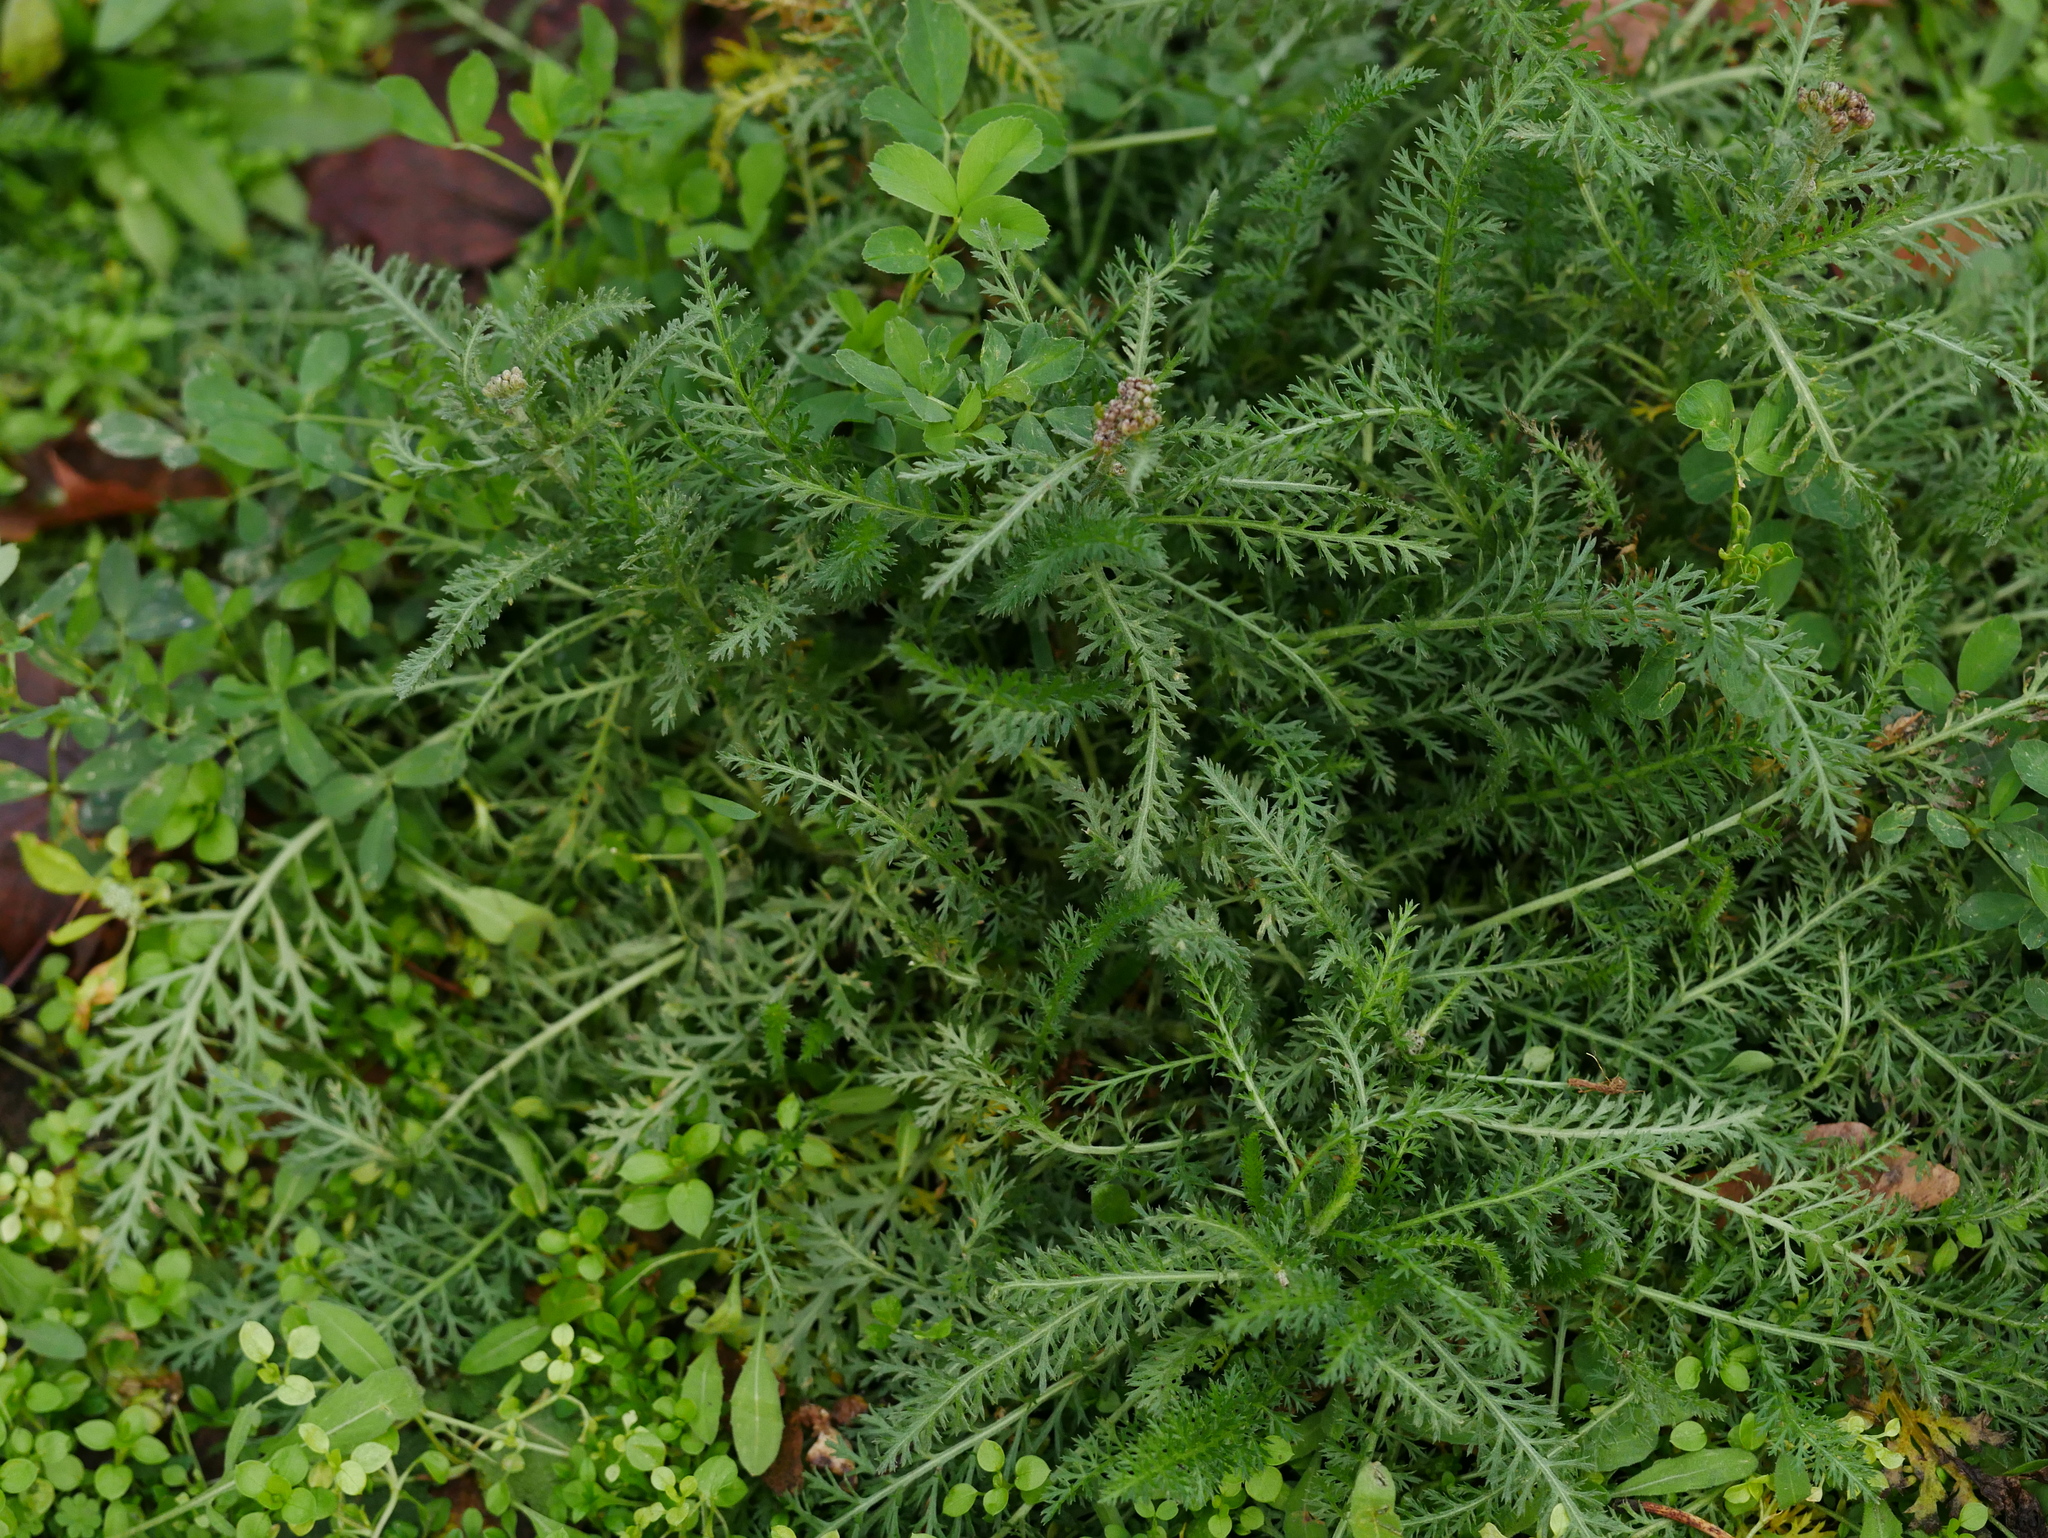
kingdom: Plantae
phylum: Tracheophyta
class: Magnoliopsida
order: Asterales
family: Asteraceae
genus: Achillea
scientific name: Achillea millefolium
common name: Yarrow
